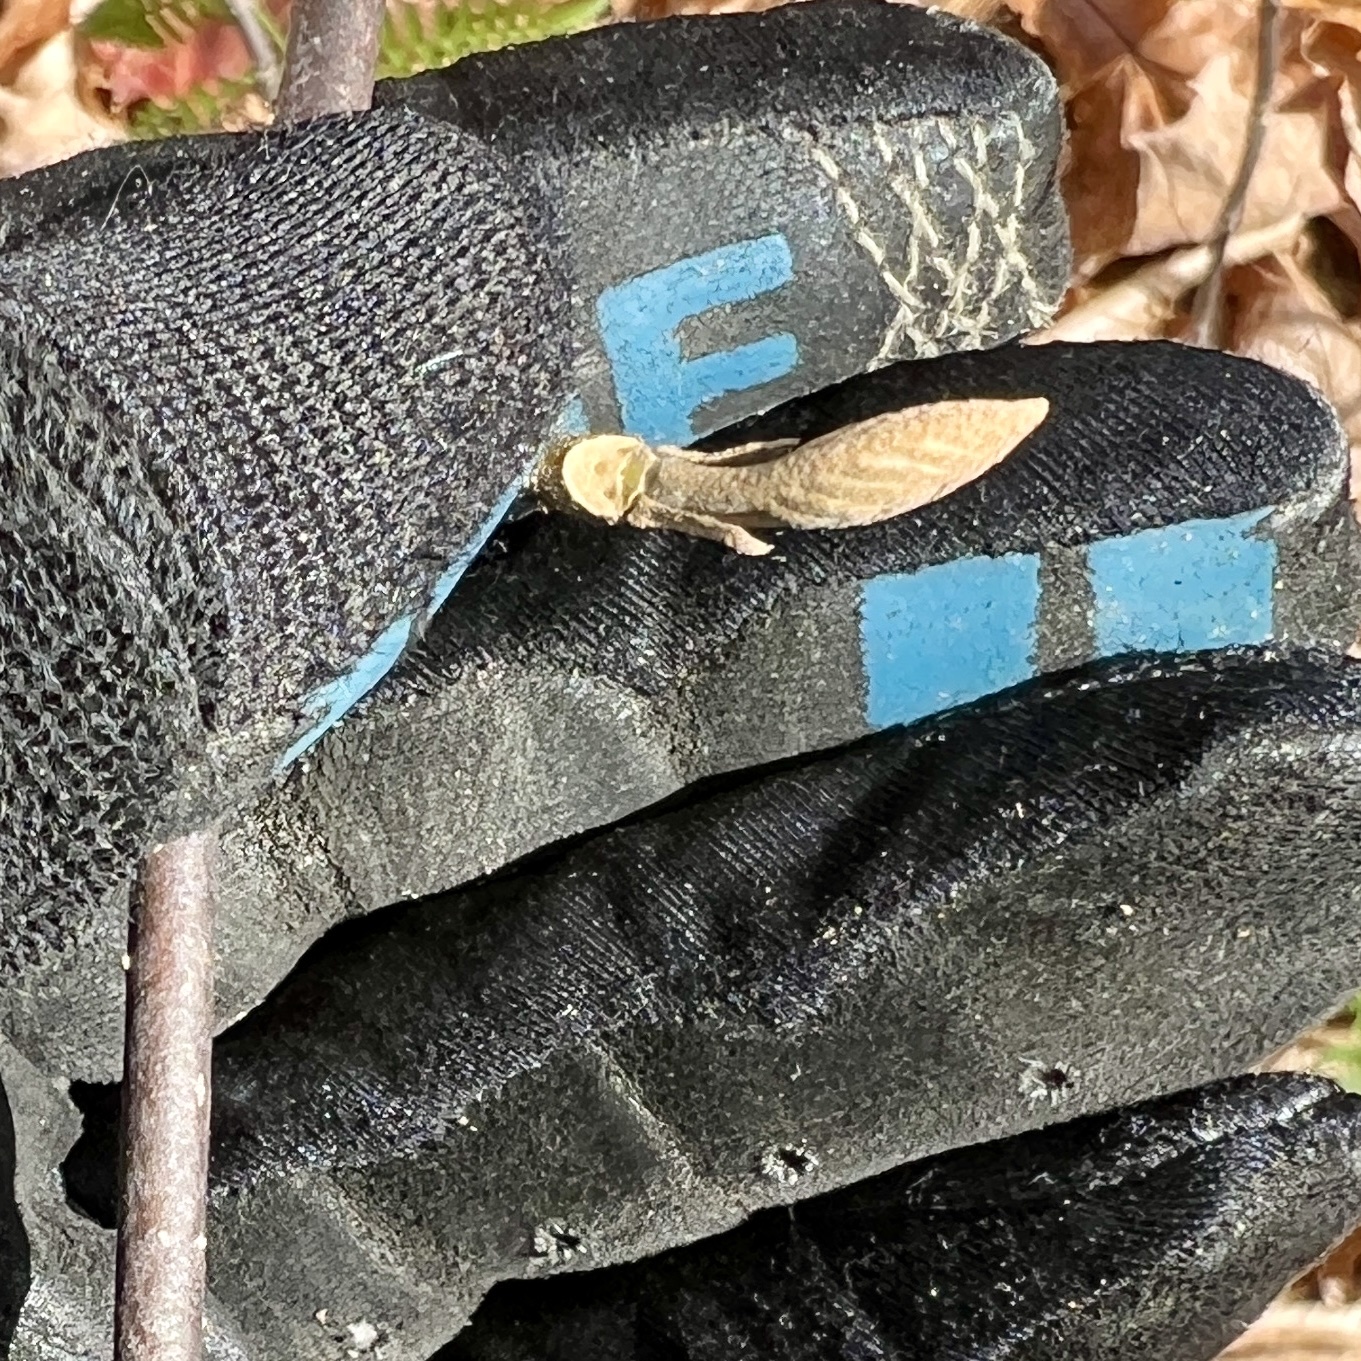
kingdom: Plantae
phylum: Tracheophyta
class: Magnoliopsida
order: Dipsacales
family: Viburnaceae
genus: Viburnum
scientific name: Viburnum lantanoides
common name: Hobblebush
